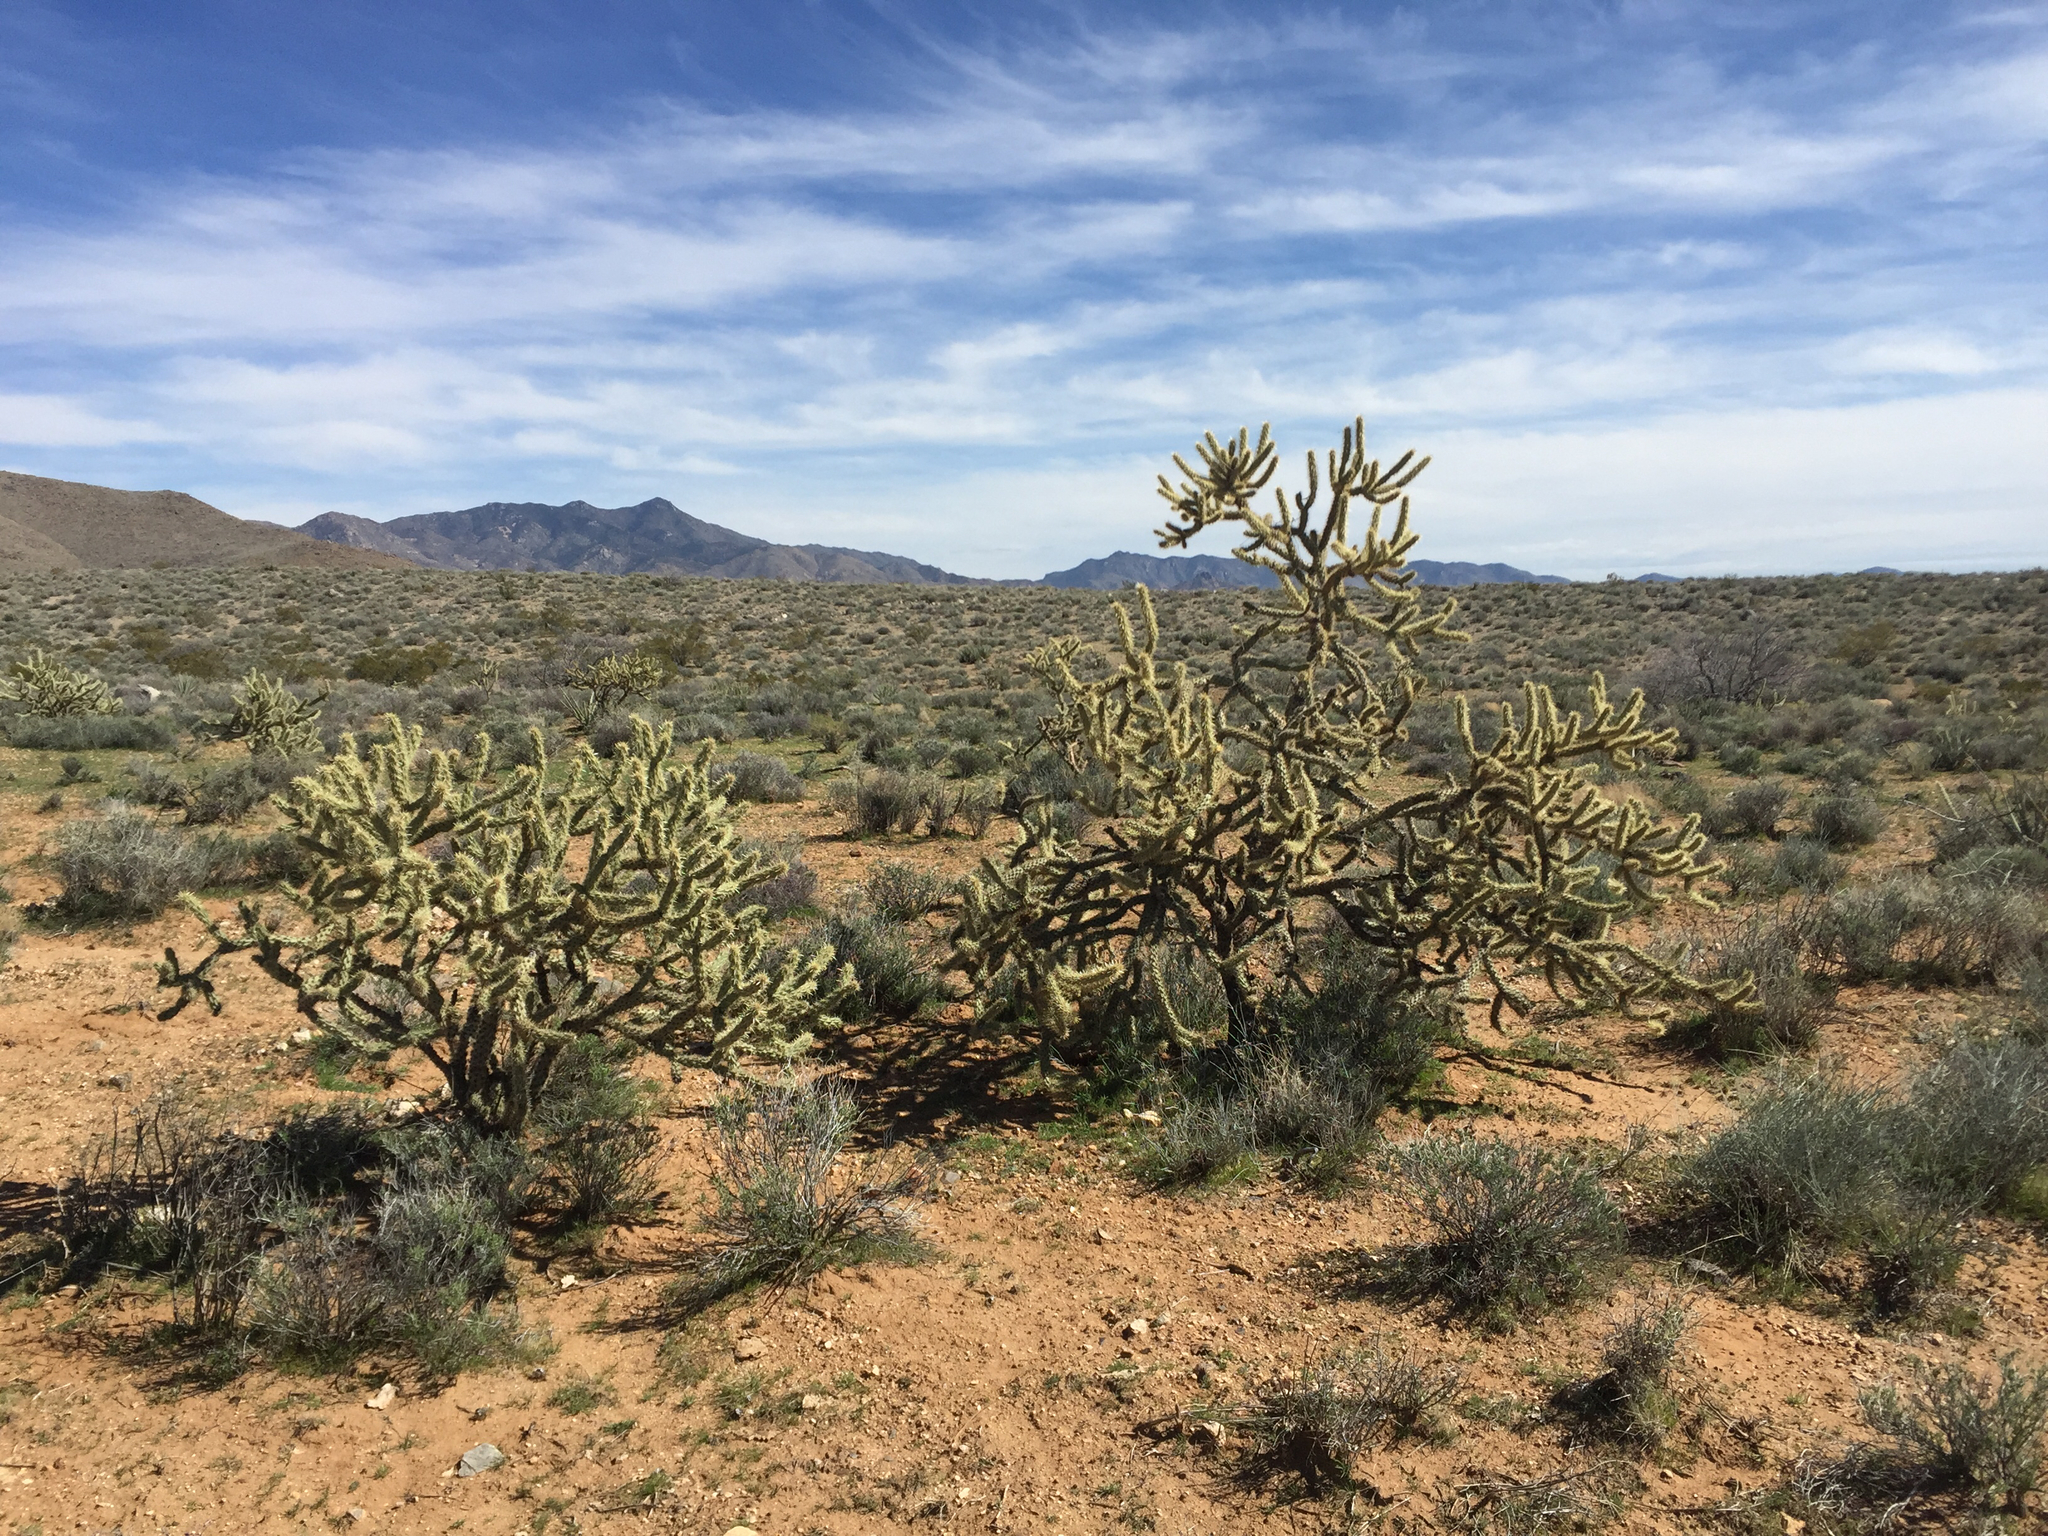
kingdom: Plantae
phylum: Tracheophyta
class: Magnoliopsida
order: Caryophyllales
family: Cactaceae
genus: Cylindropuntia
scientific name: Cylindropuntia acanthocarpa
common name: Buckhorn cholla
